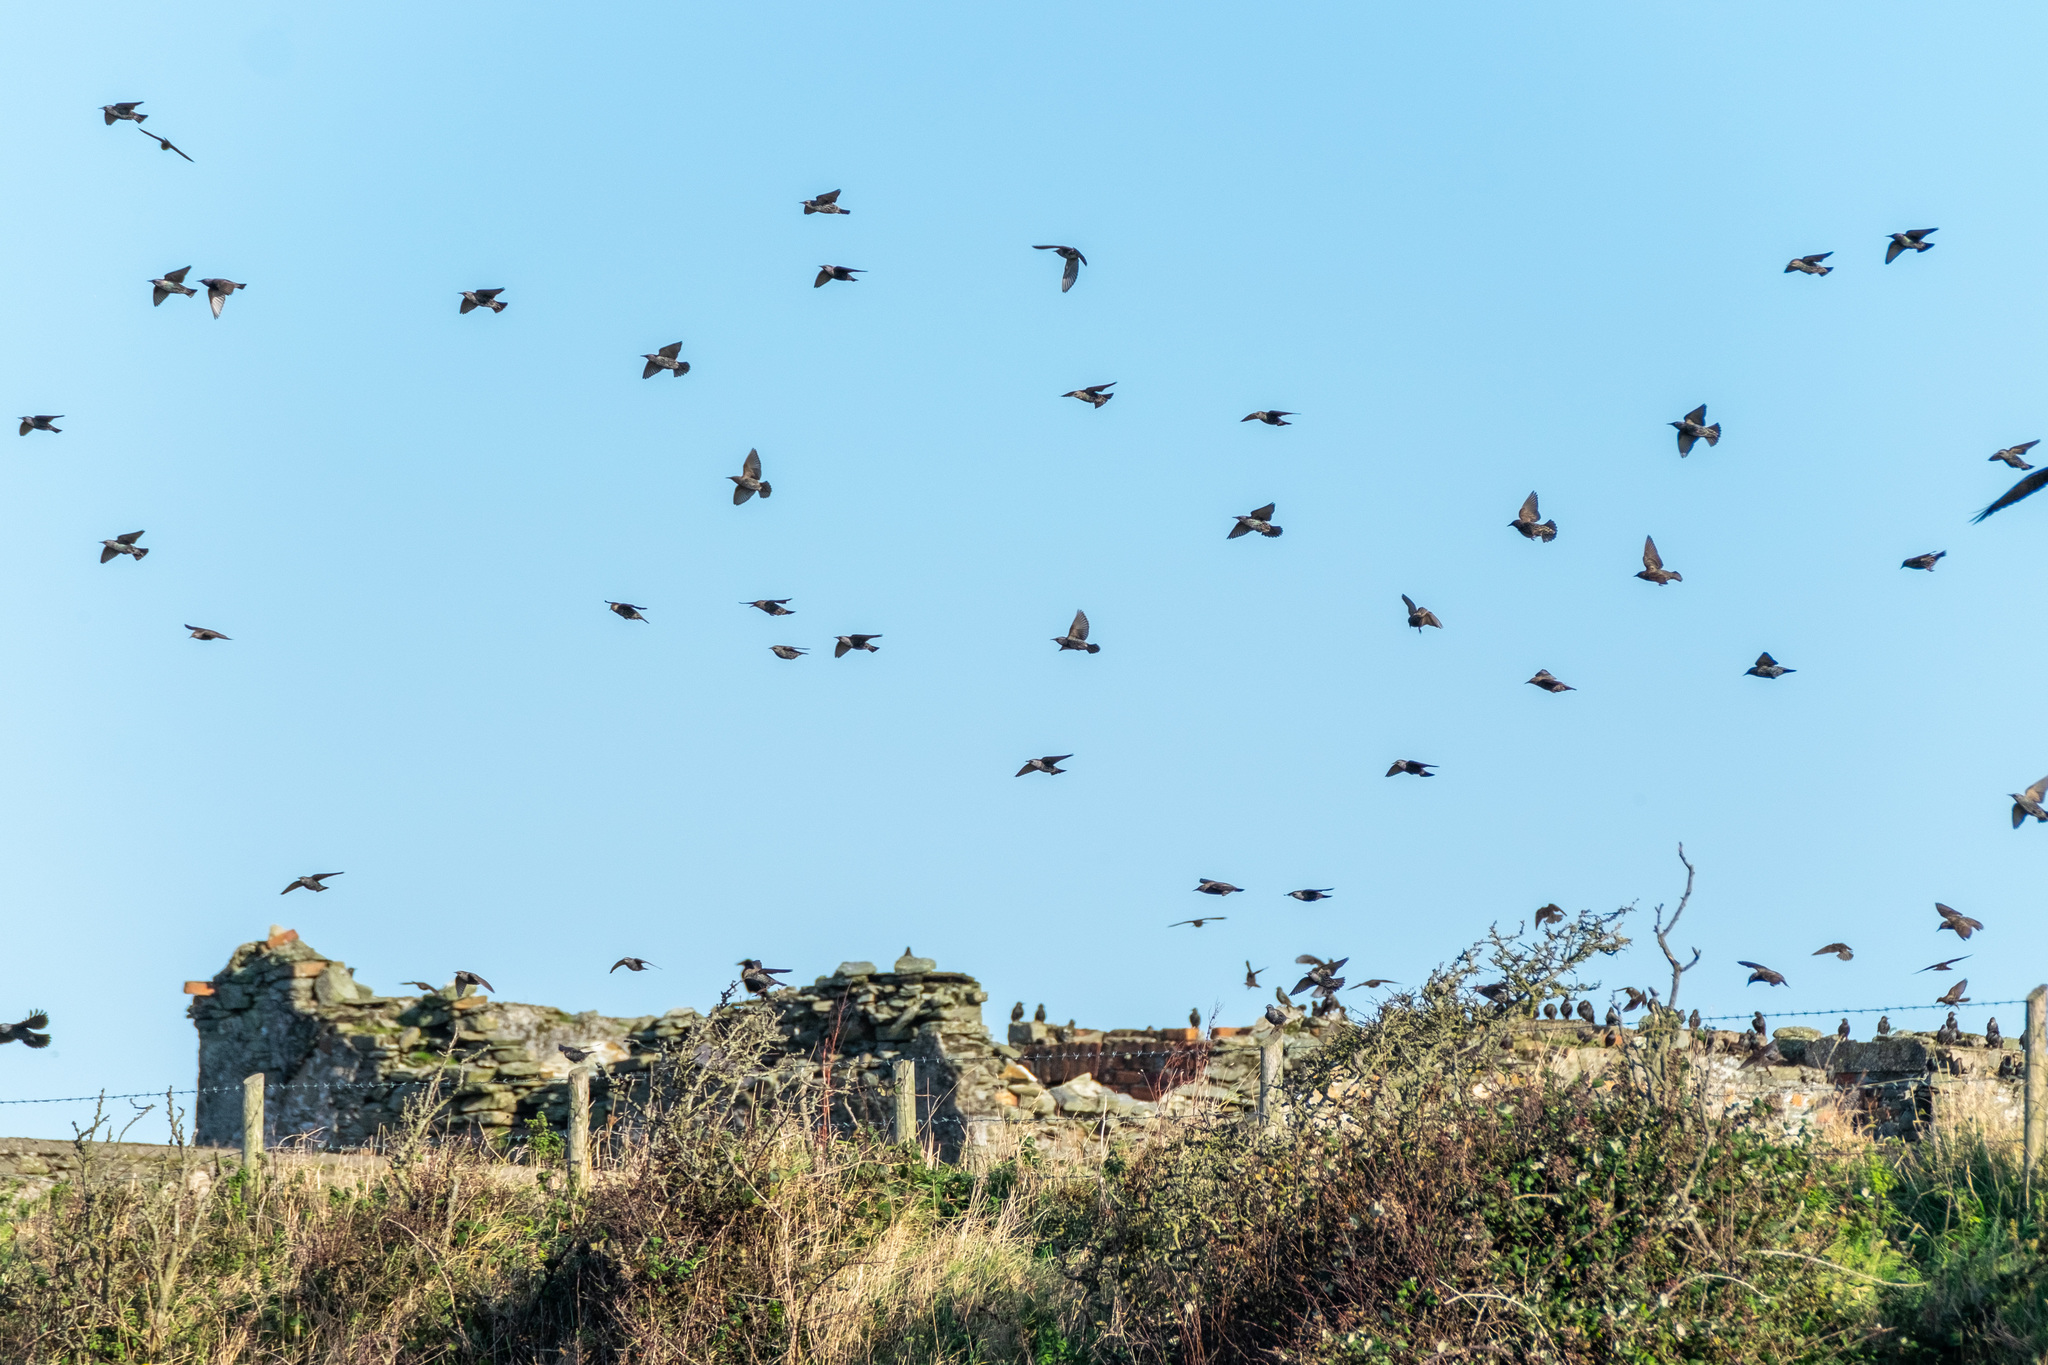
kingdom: Animalia
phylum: Chordata
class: Aves
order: Passeriformes
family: Sturnidae
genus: Sturnus
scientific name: Sturnus vulgaris
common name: Common starling
